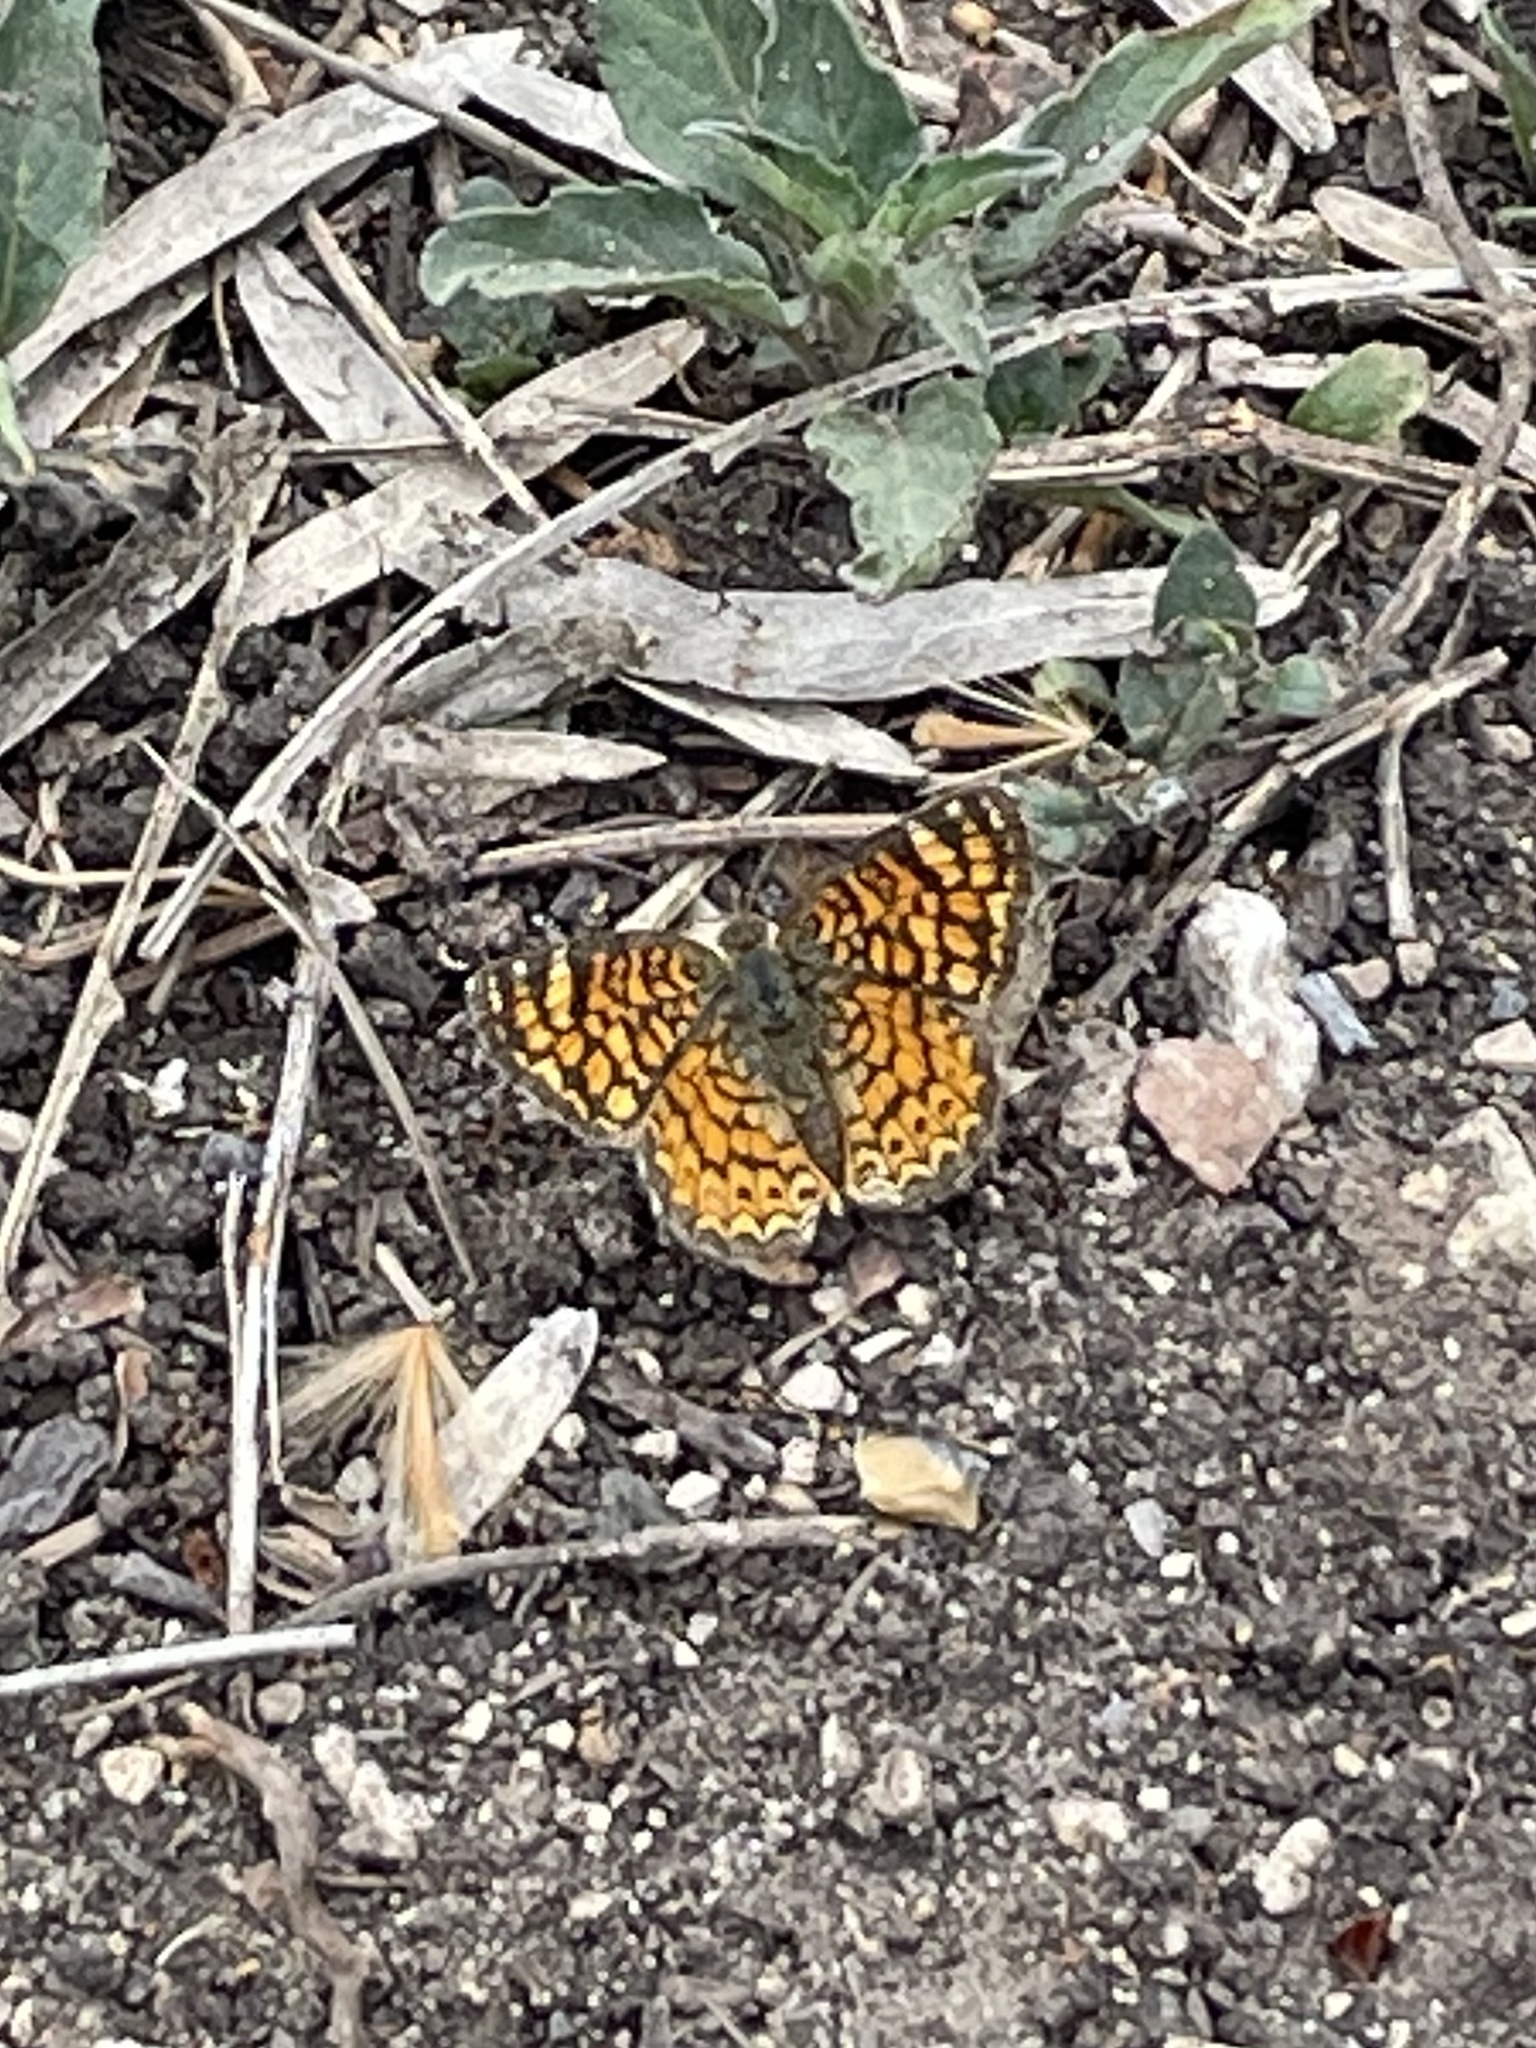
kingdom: Animalia
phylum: Arthropoda
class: Insecta
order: Lepidoptera
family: Nymphalidae
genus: Phyciodes
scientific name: Phyciodes vesta
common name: Vesta crescent
